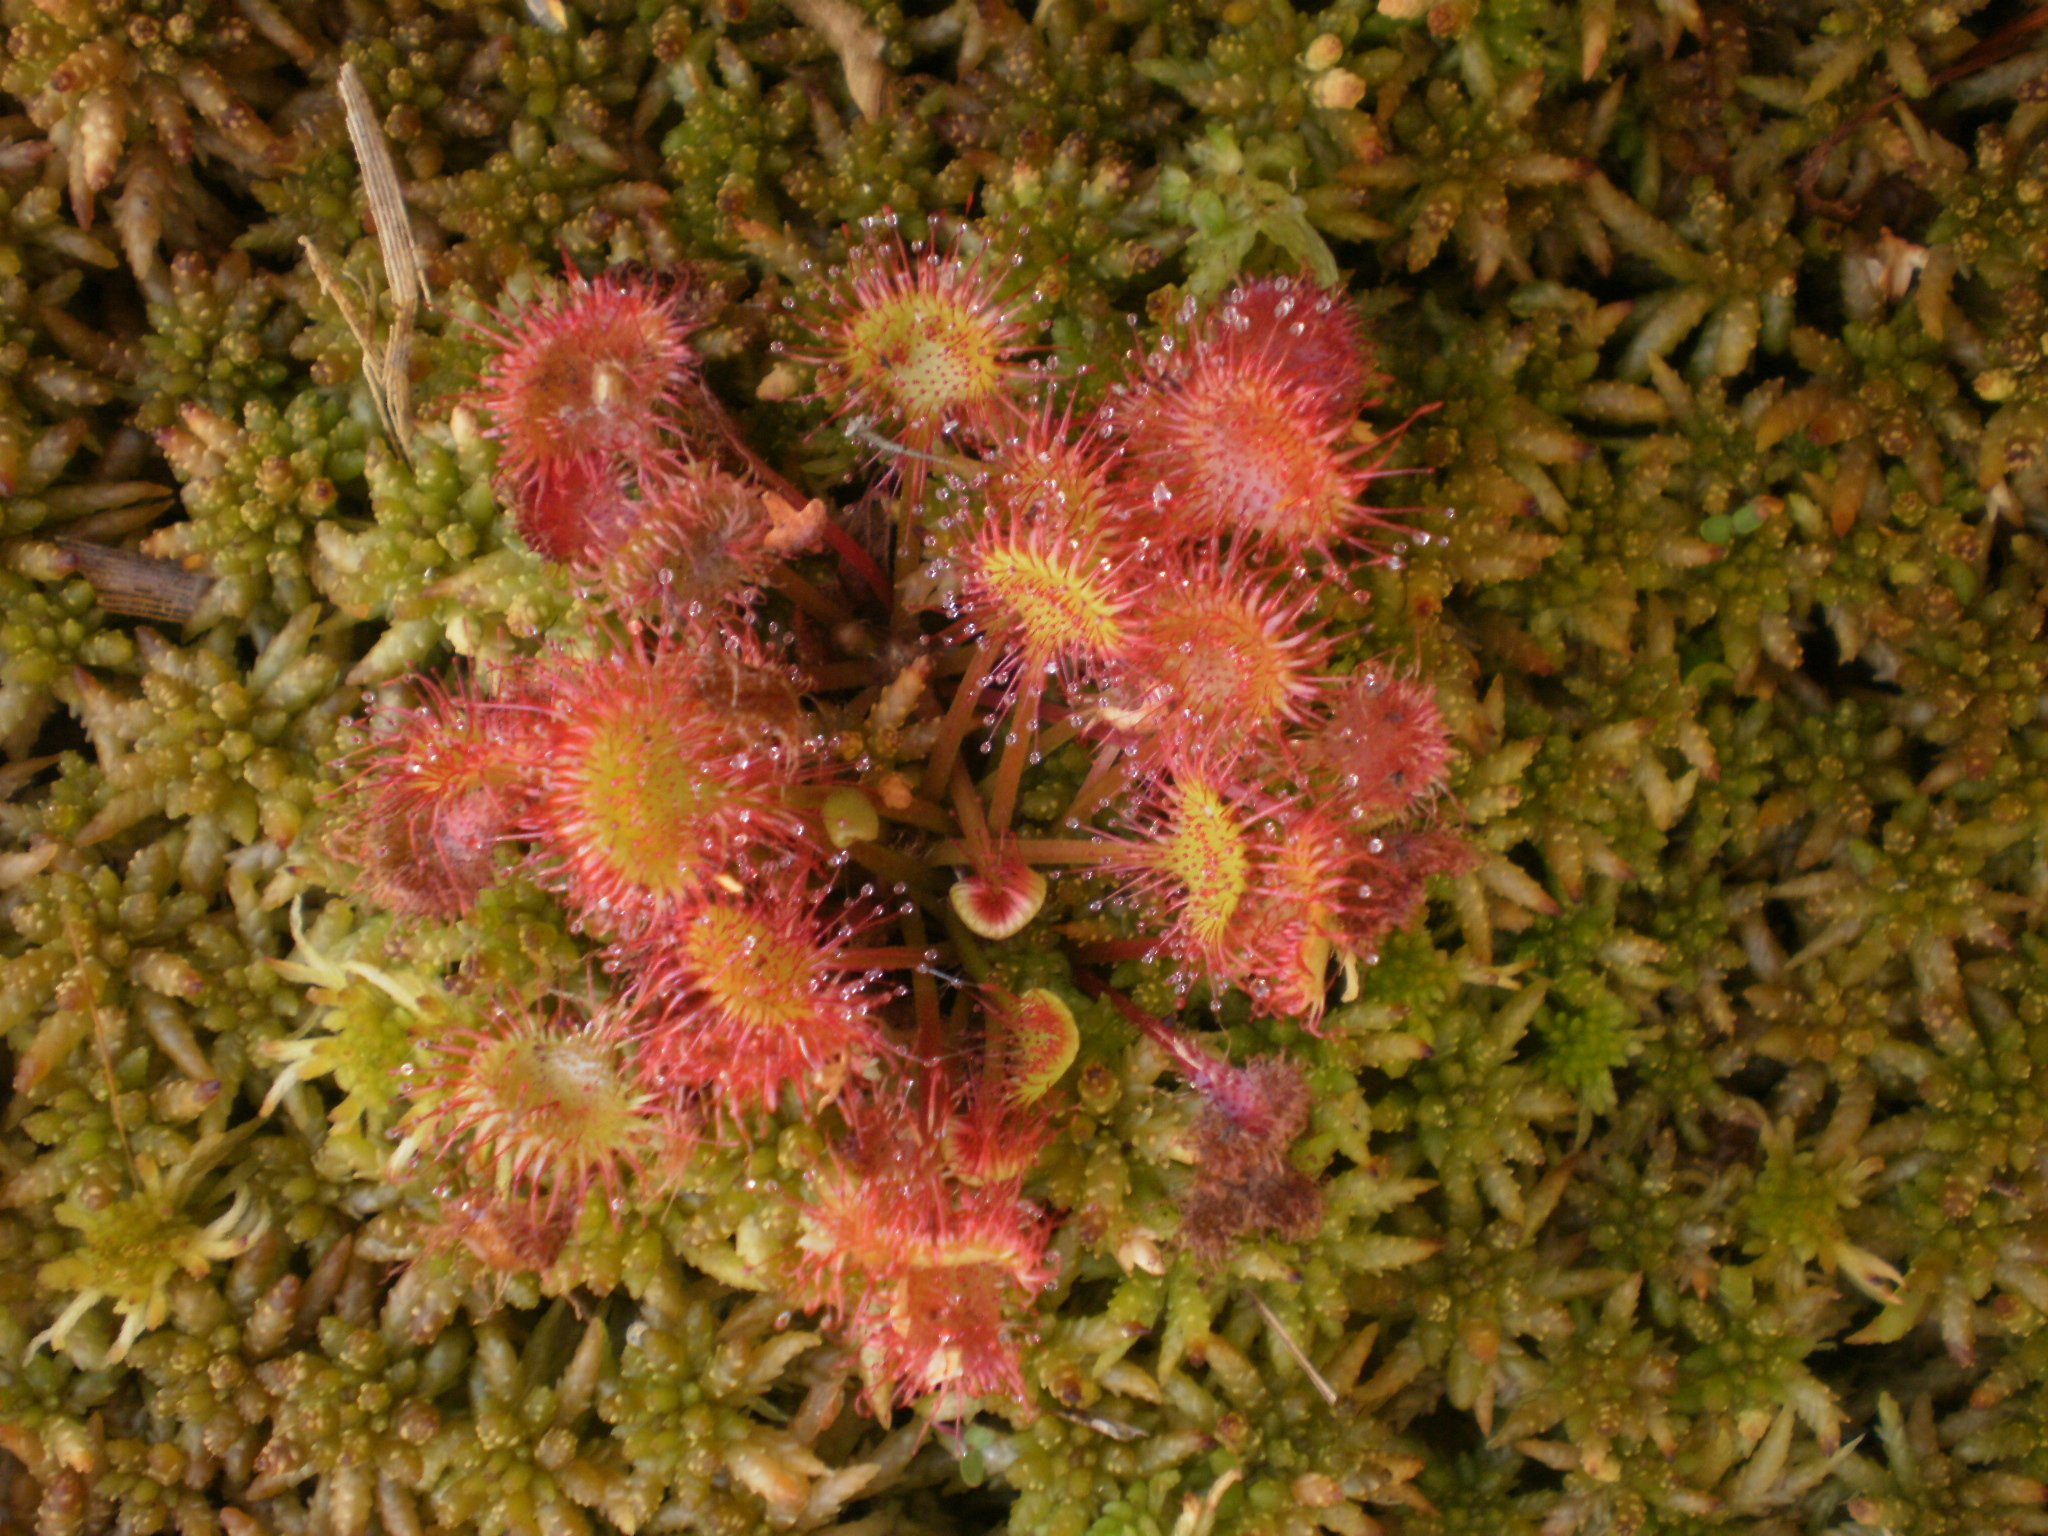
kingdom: Plantae
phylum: Tracheophyta
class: Magnoliopsida
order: Caryophyllales
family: Droseraceae
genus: Drosera
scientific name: Drosera rotundifolia
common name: Round-leaved sundew
